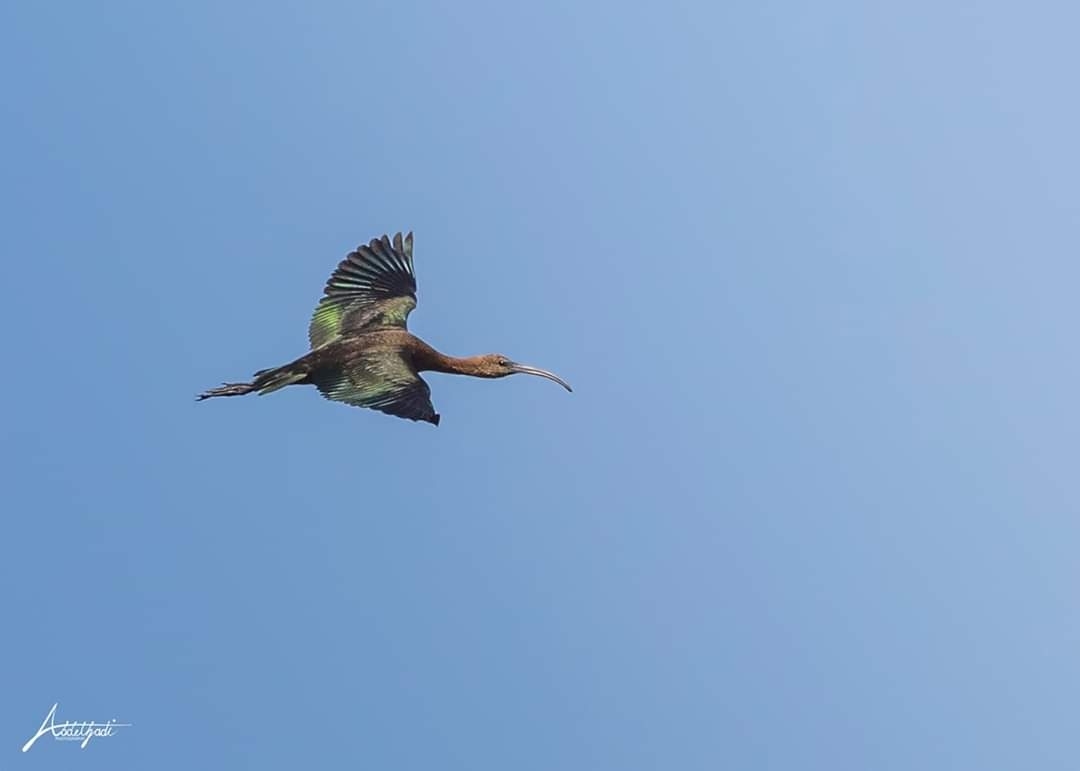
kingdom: Animalia
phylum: Chordata
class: Aves
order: Pelecaniformes
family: Threskiornithidae
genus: Plegadis
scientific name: Plegadis falcinellus
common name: Glossy ibis
